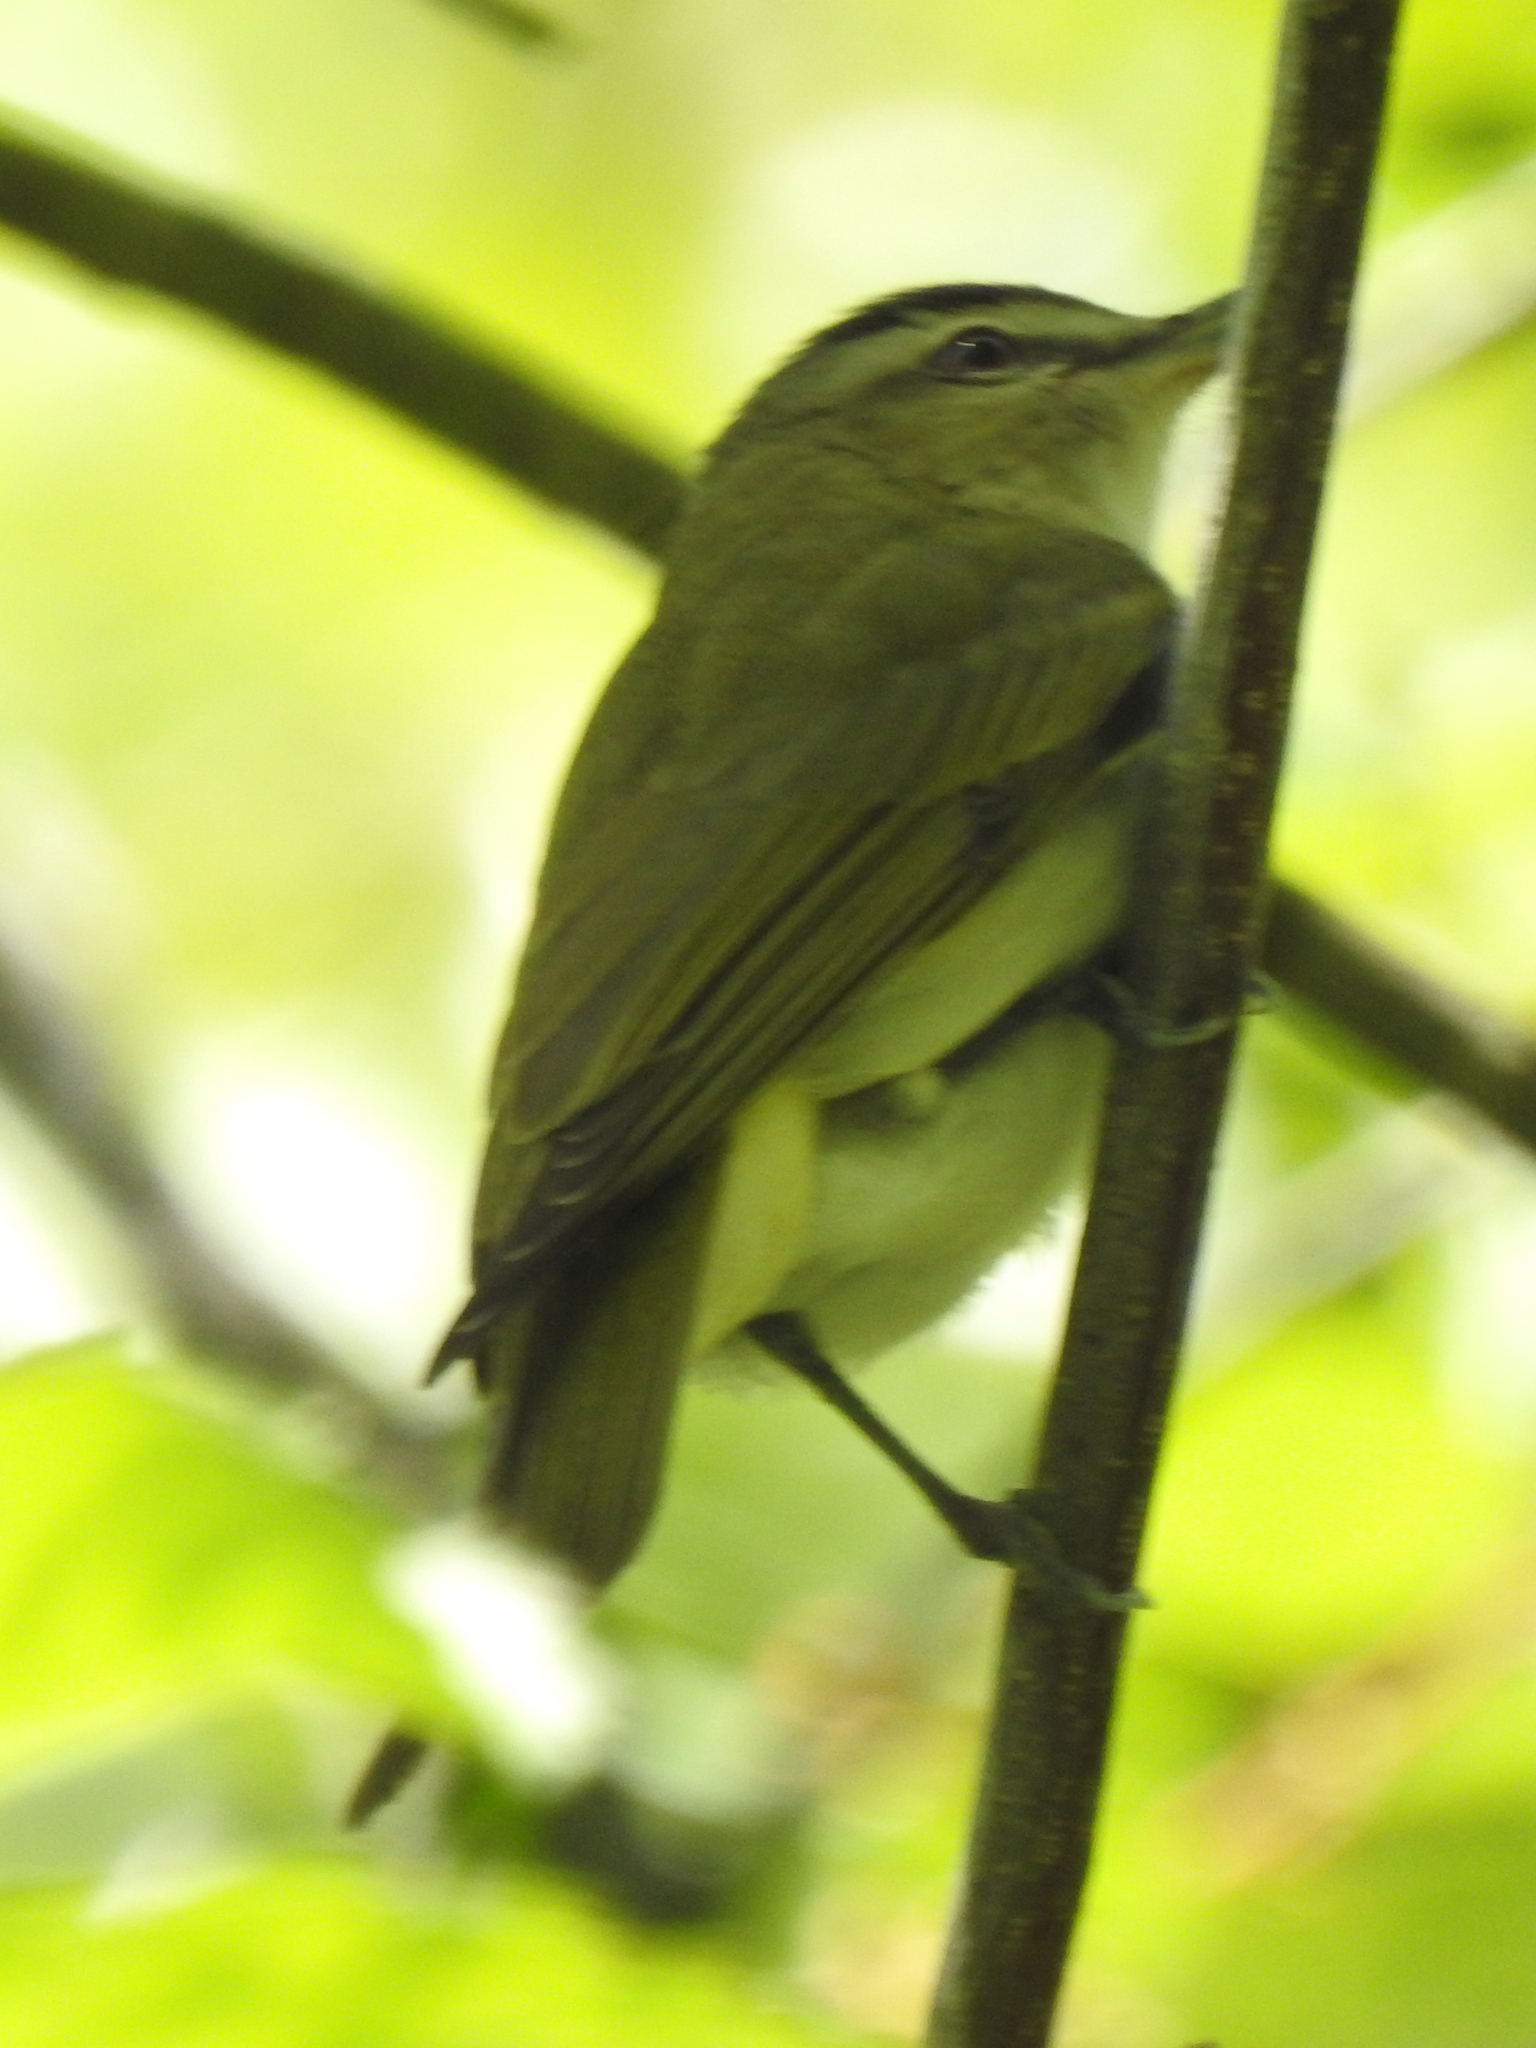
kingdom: Animalia
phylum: Chordata
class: Aves
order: Passeriformes
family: Vireonidae
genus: Vireo
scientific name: Vireo olivaceus
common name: Red-eyed vireo
